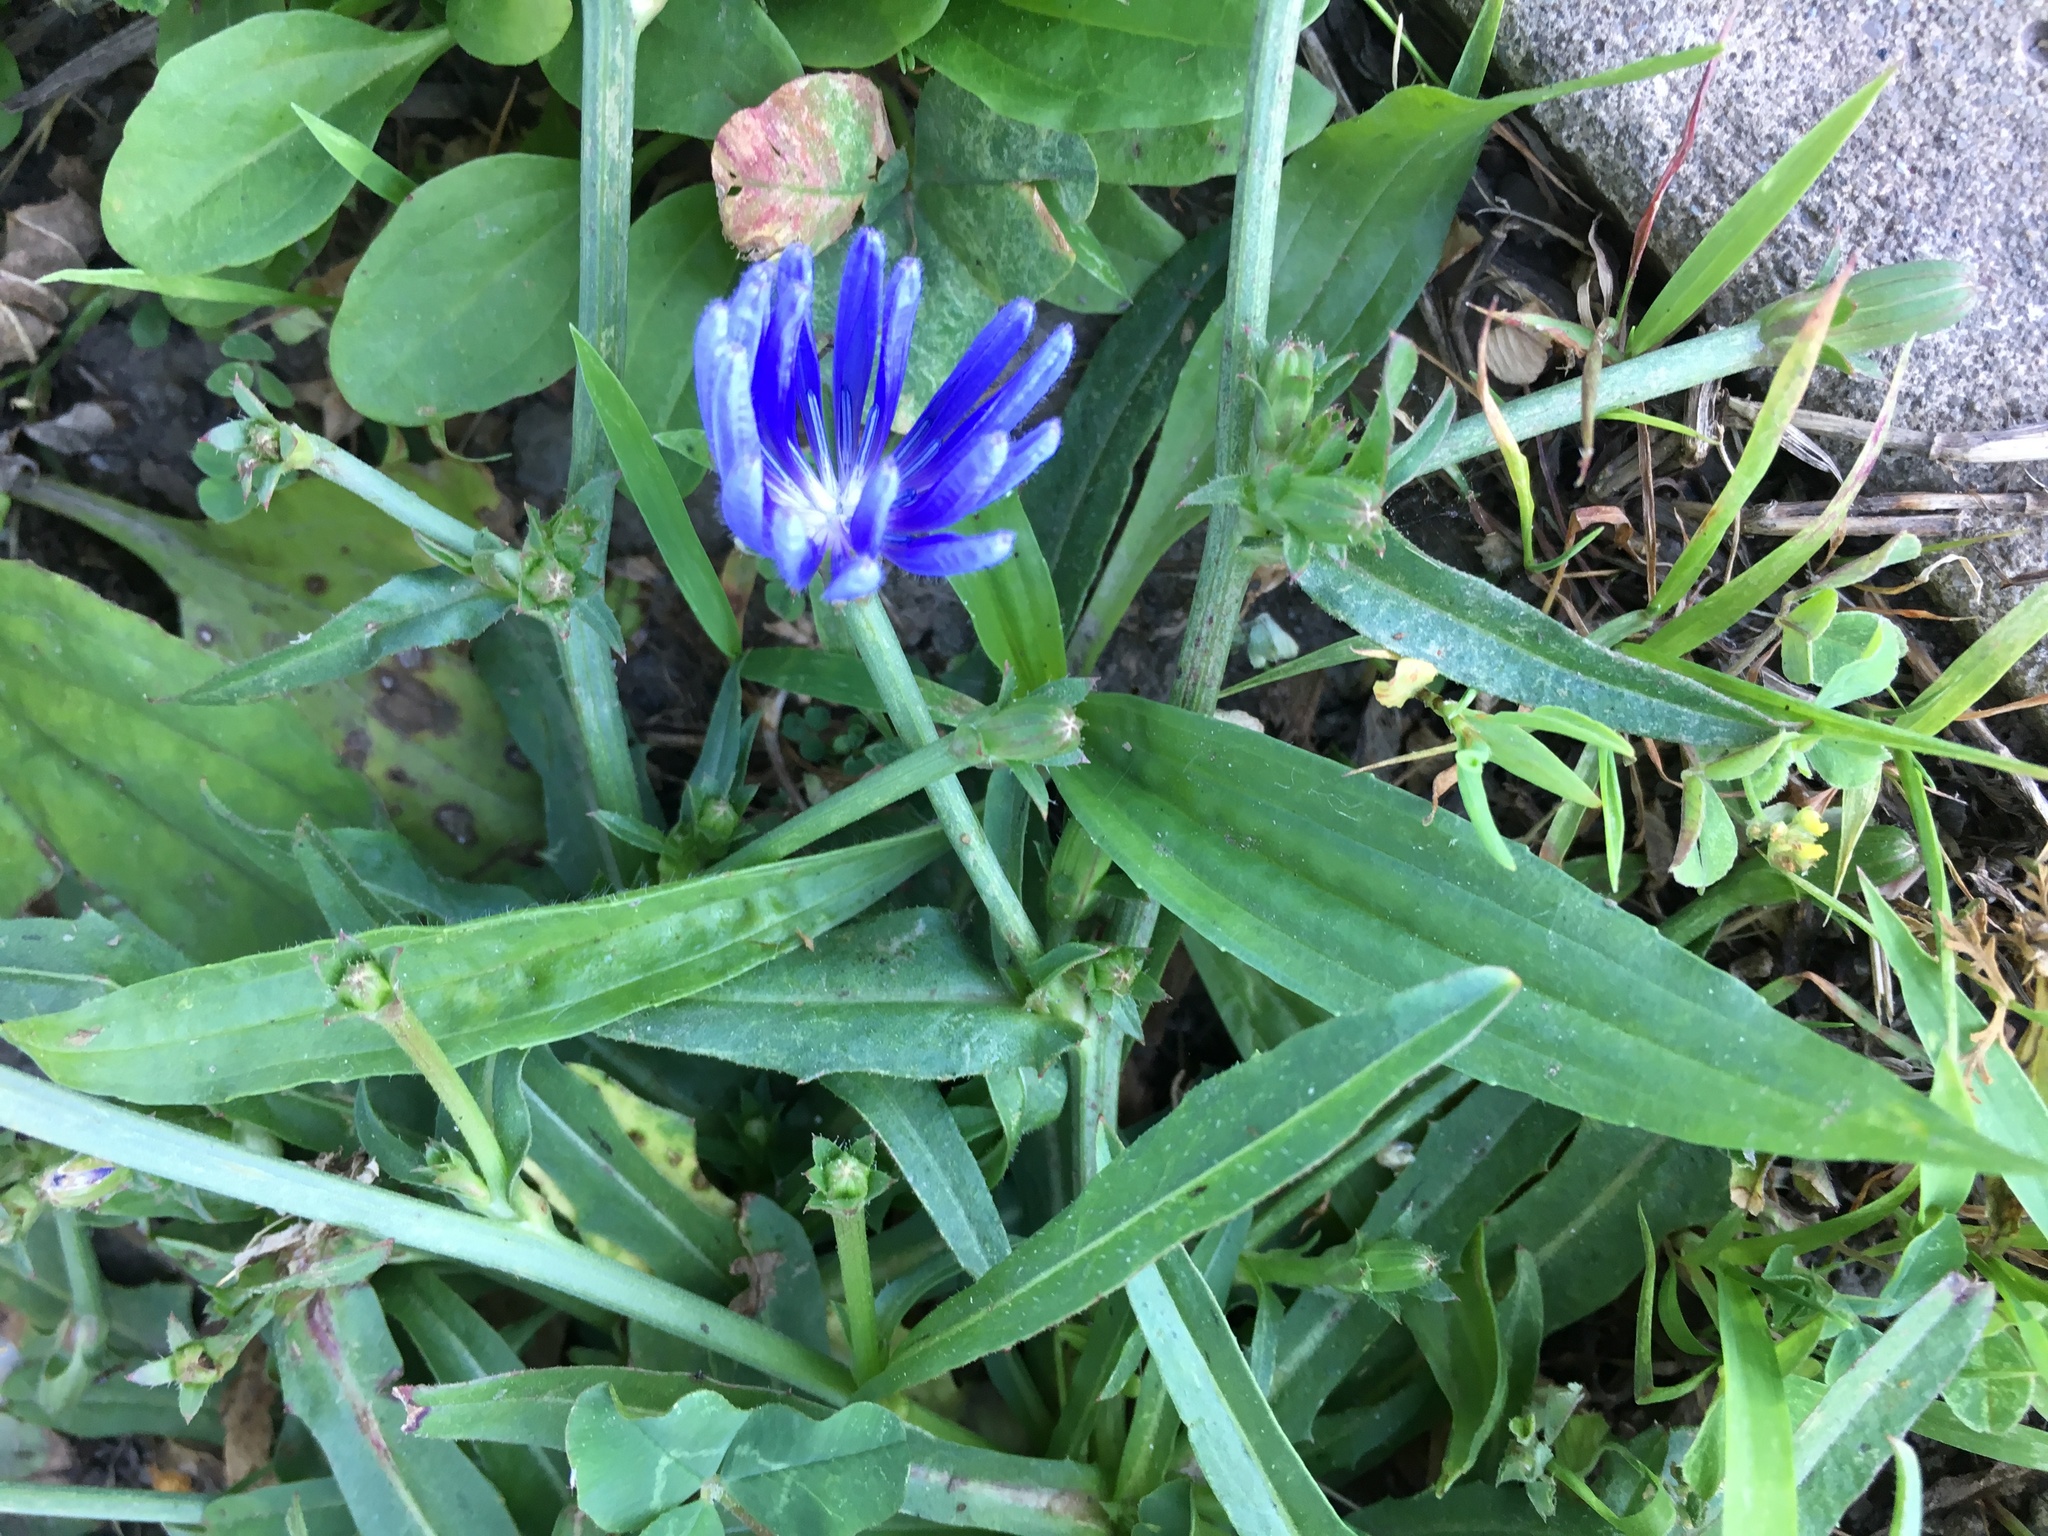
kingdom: Plantae
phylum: Tracheophyta
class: Magnoliopsida
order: Asterales
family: Asteraceae
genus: Cichorium
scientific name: Cichorium intybus
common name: Chicory
